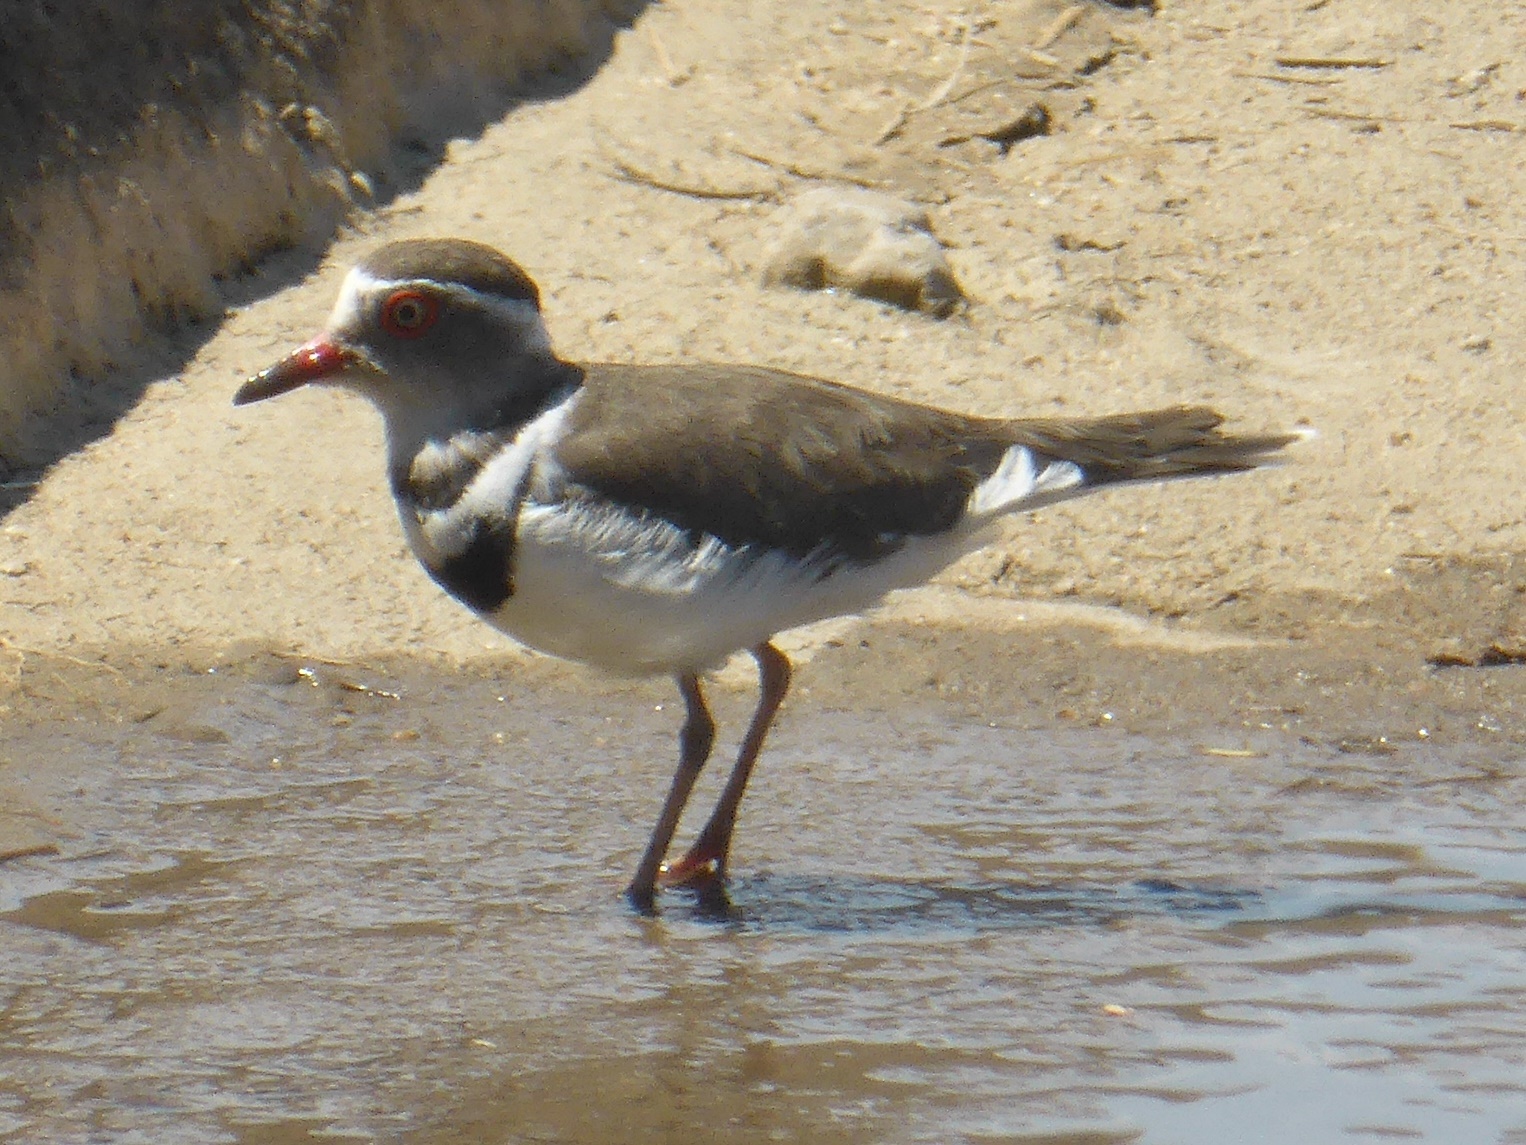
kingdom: Animalia
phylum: Chordata
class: Aves
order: Charadriiformes
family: Charadriidae
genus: Charadrius
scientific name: Charadrius tricollaris
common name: Three-banded plover
